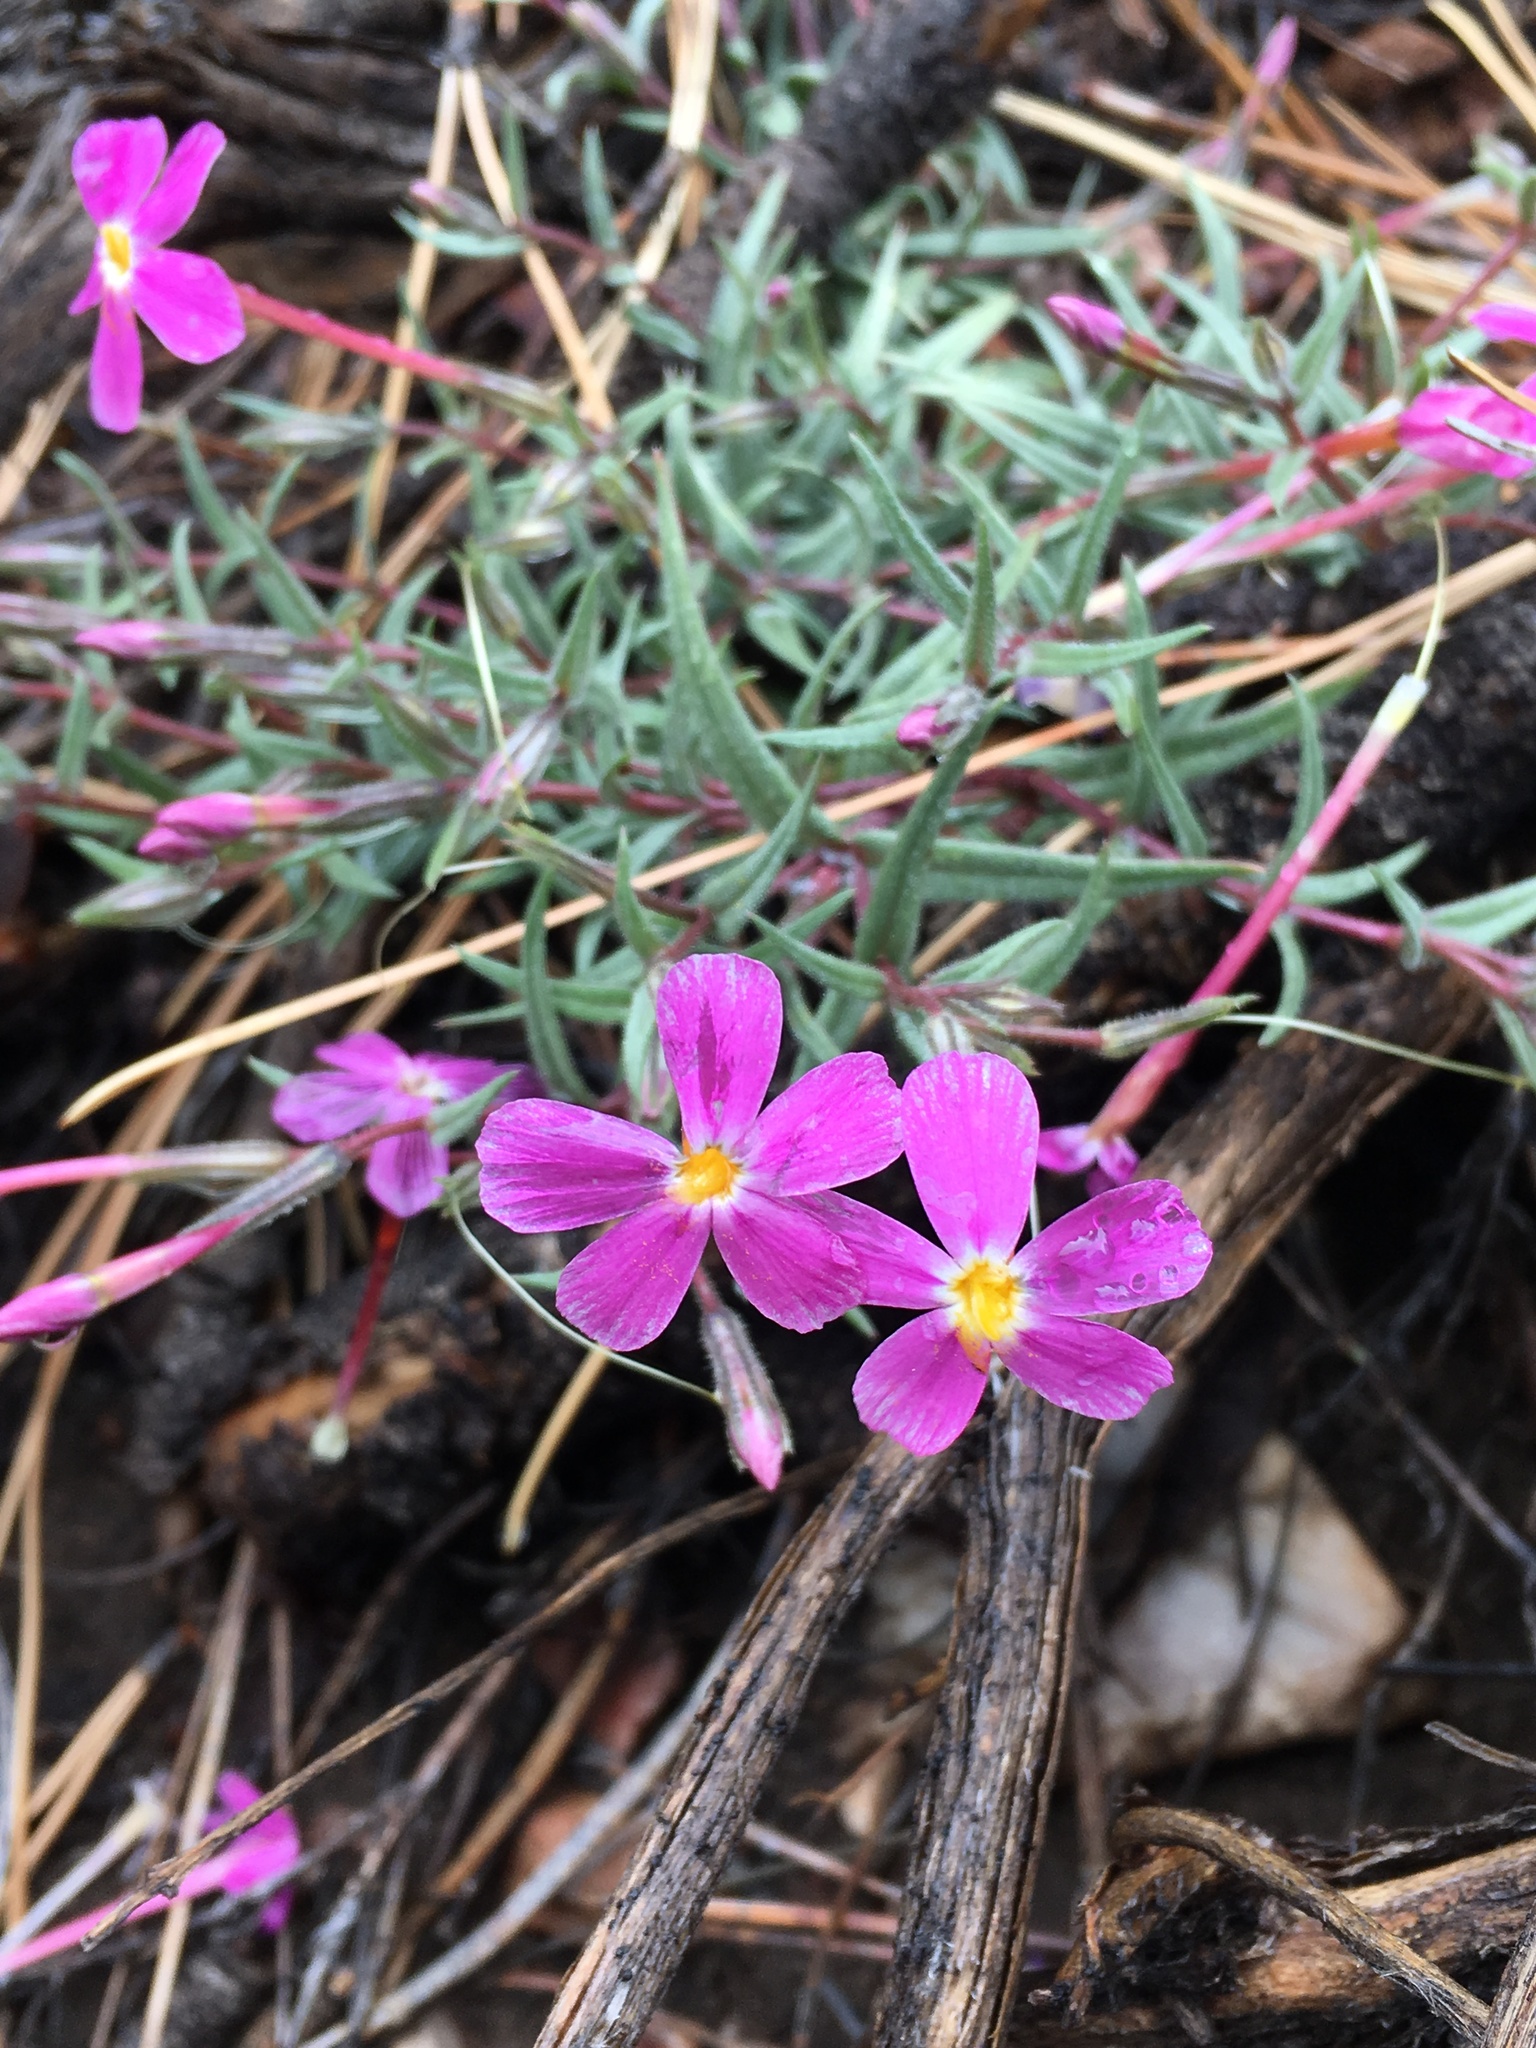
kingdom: Plantae
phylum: Tracheophyta
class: Magnoliopsida
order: Ericales
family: Polemoniaceae
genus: Phlox
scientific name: Phlox dolichantha
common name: Bear valley phlox
